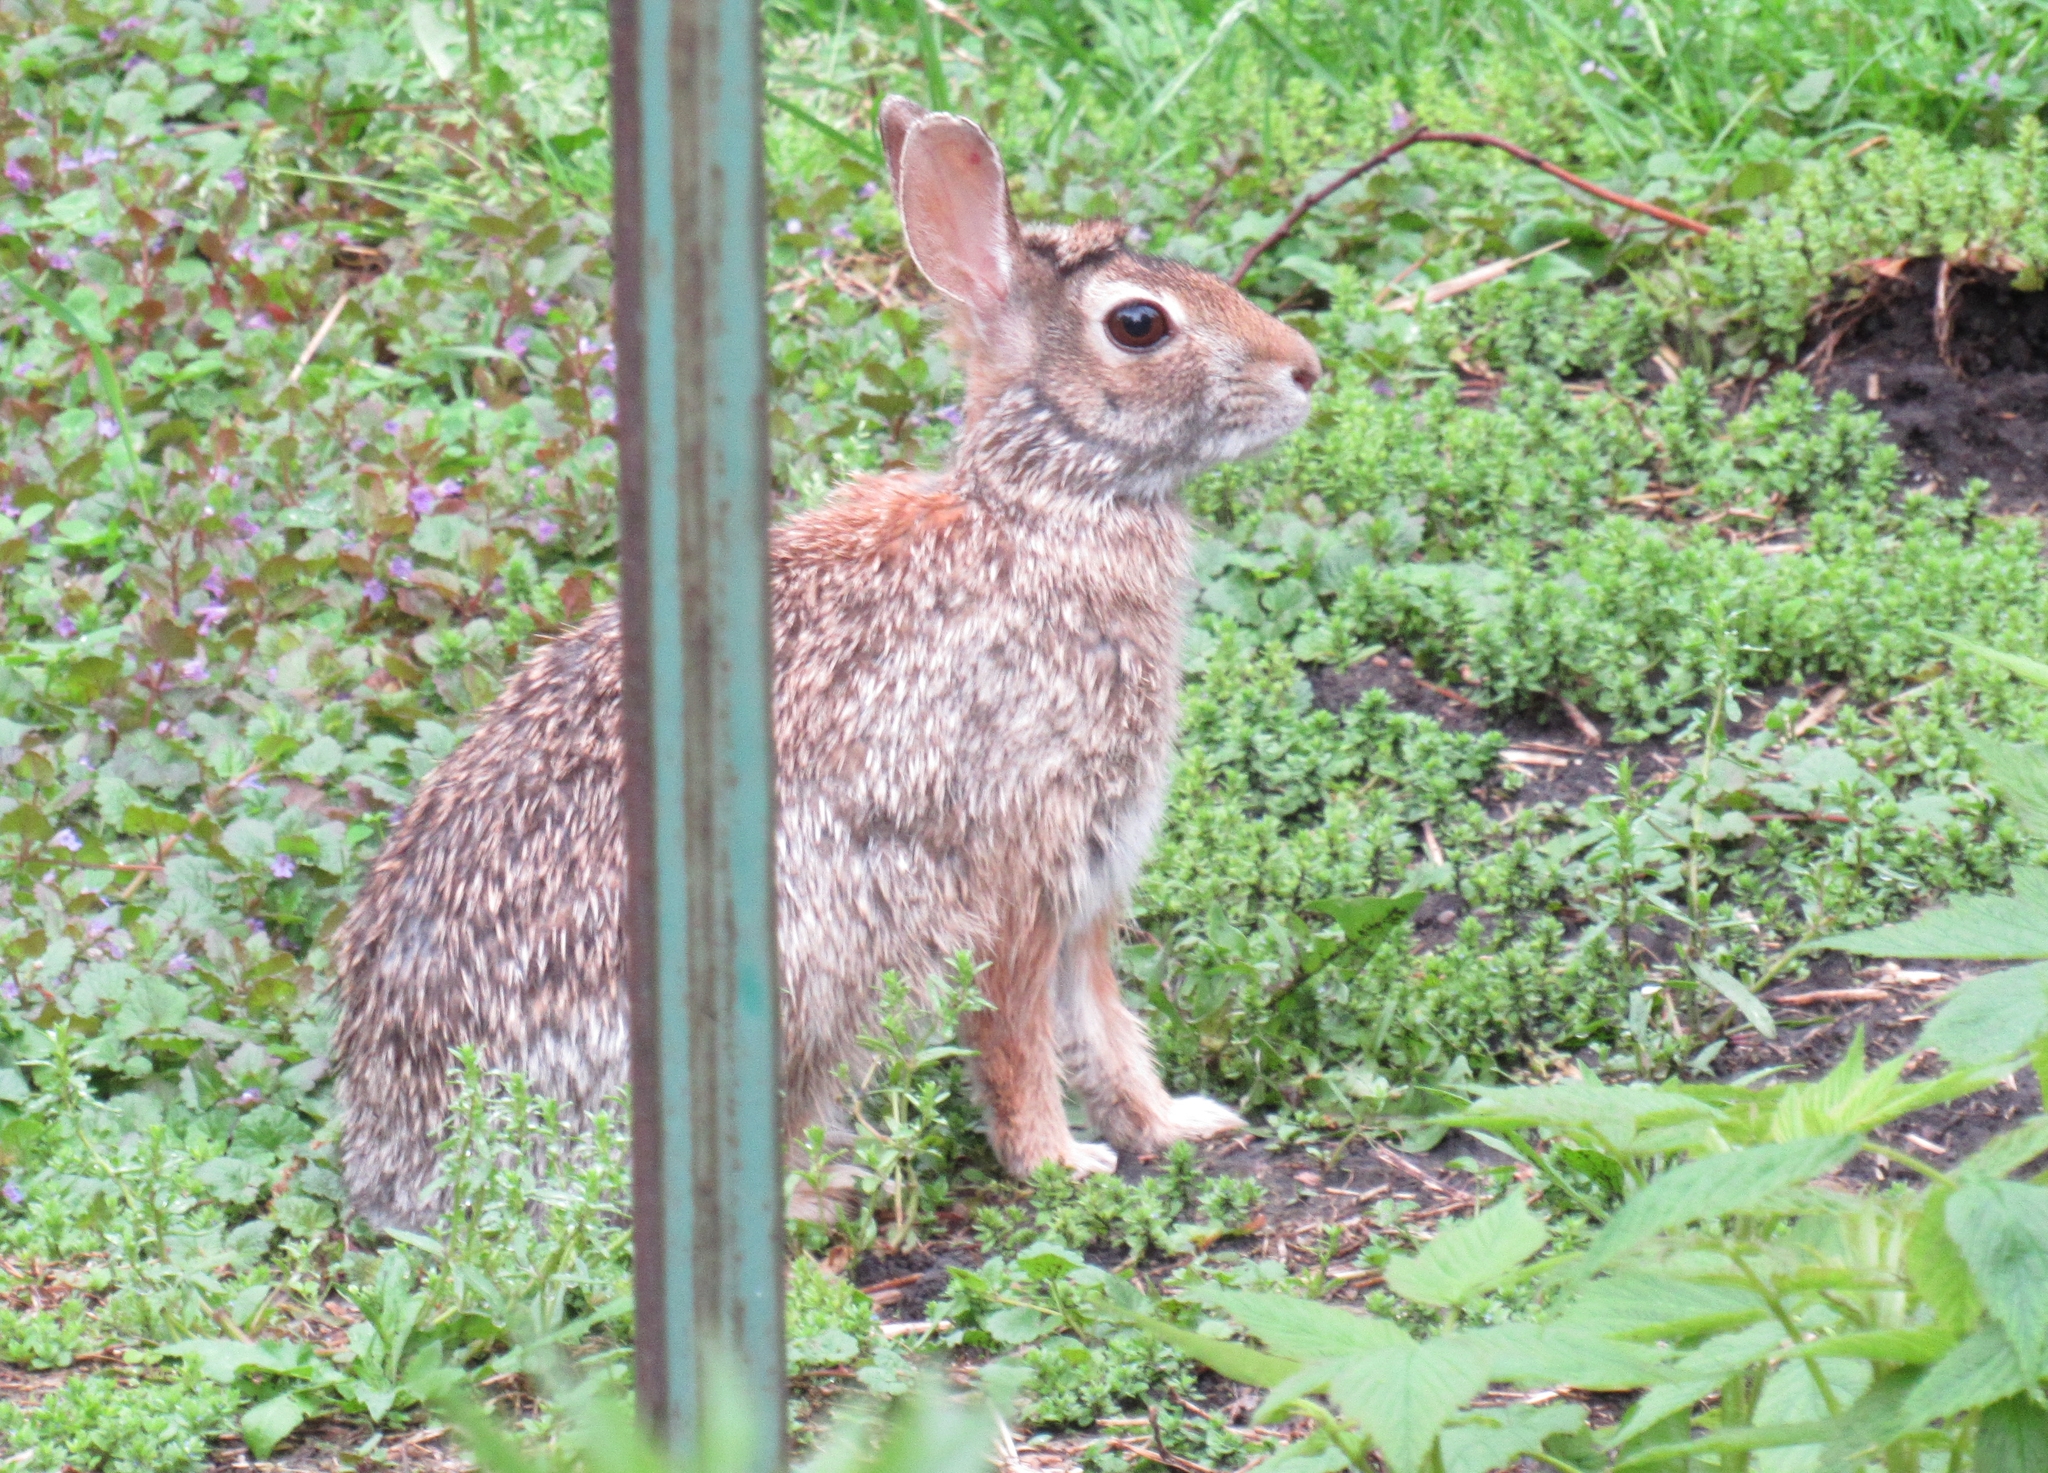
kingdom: Animalia
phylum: Chordata
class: Mammalia
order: Lagomorpha
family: Leporidae
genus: Sylvilagus
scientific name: Sylvilagus floridanus
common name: Eastern cottontail
